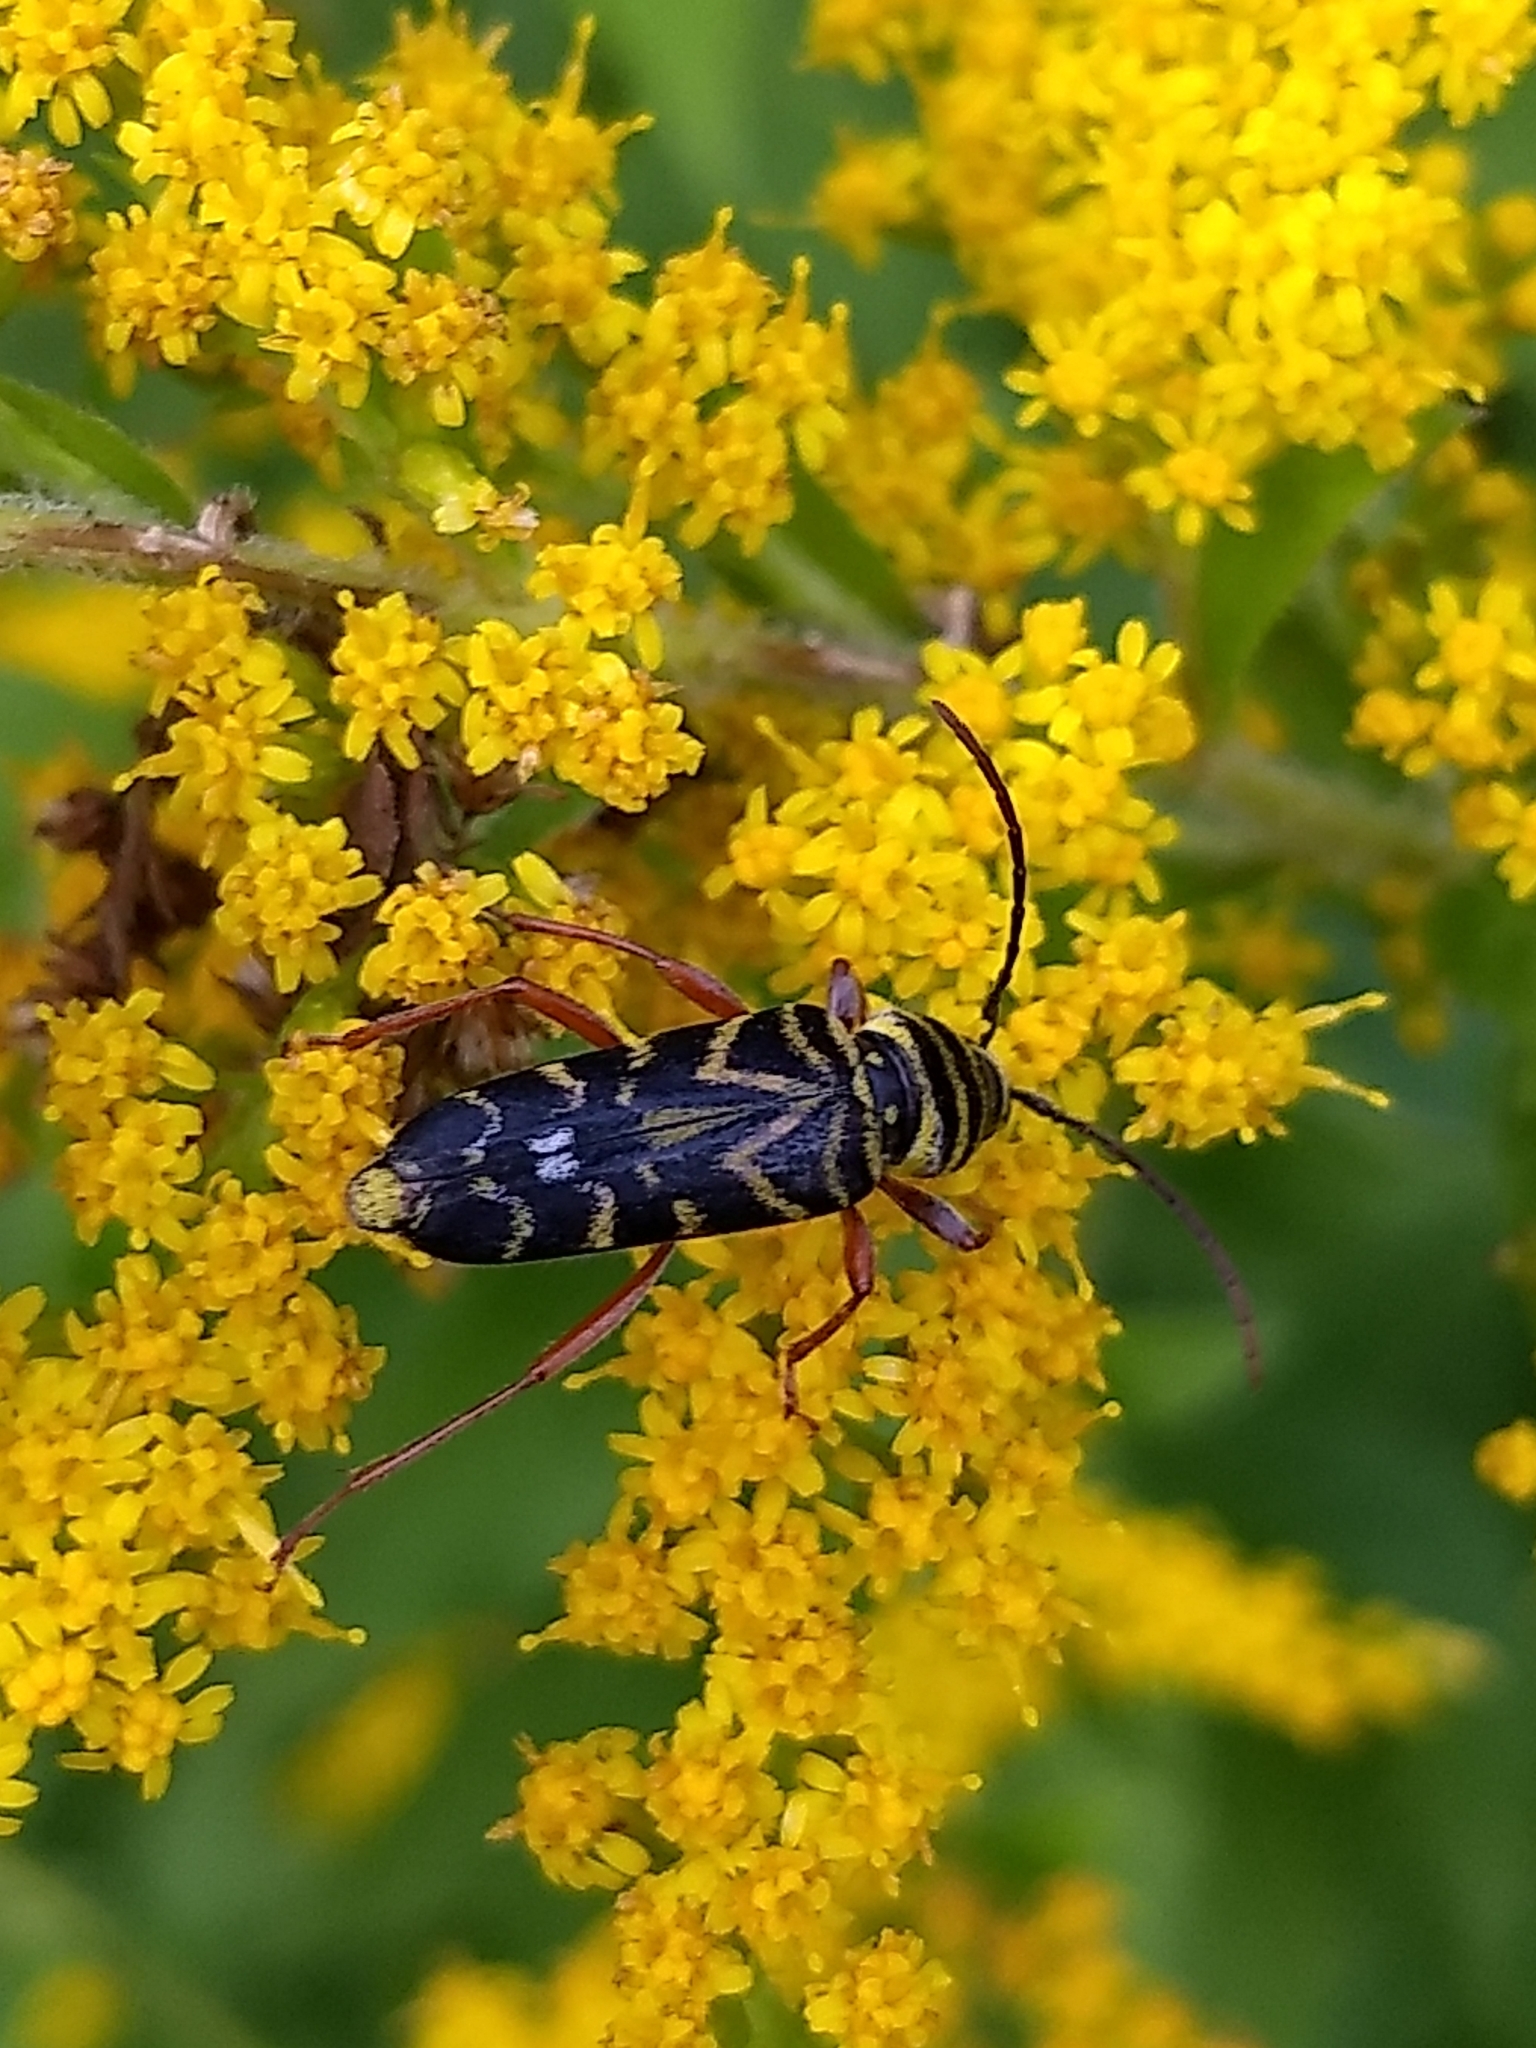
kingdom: Animalia
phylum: Arthropoda
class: Insecta
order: Coleoptera
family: Cerambycidae
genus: Megacyllene
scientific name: Megacyllene robiniae
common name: Locust borer
